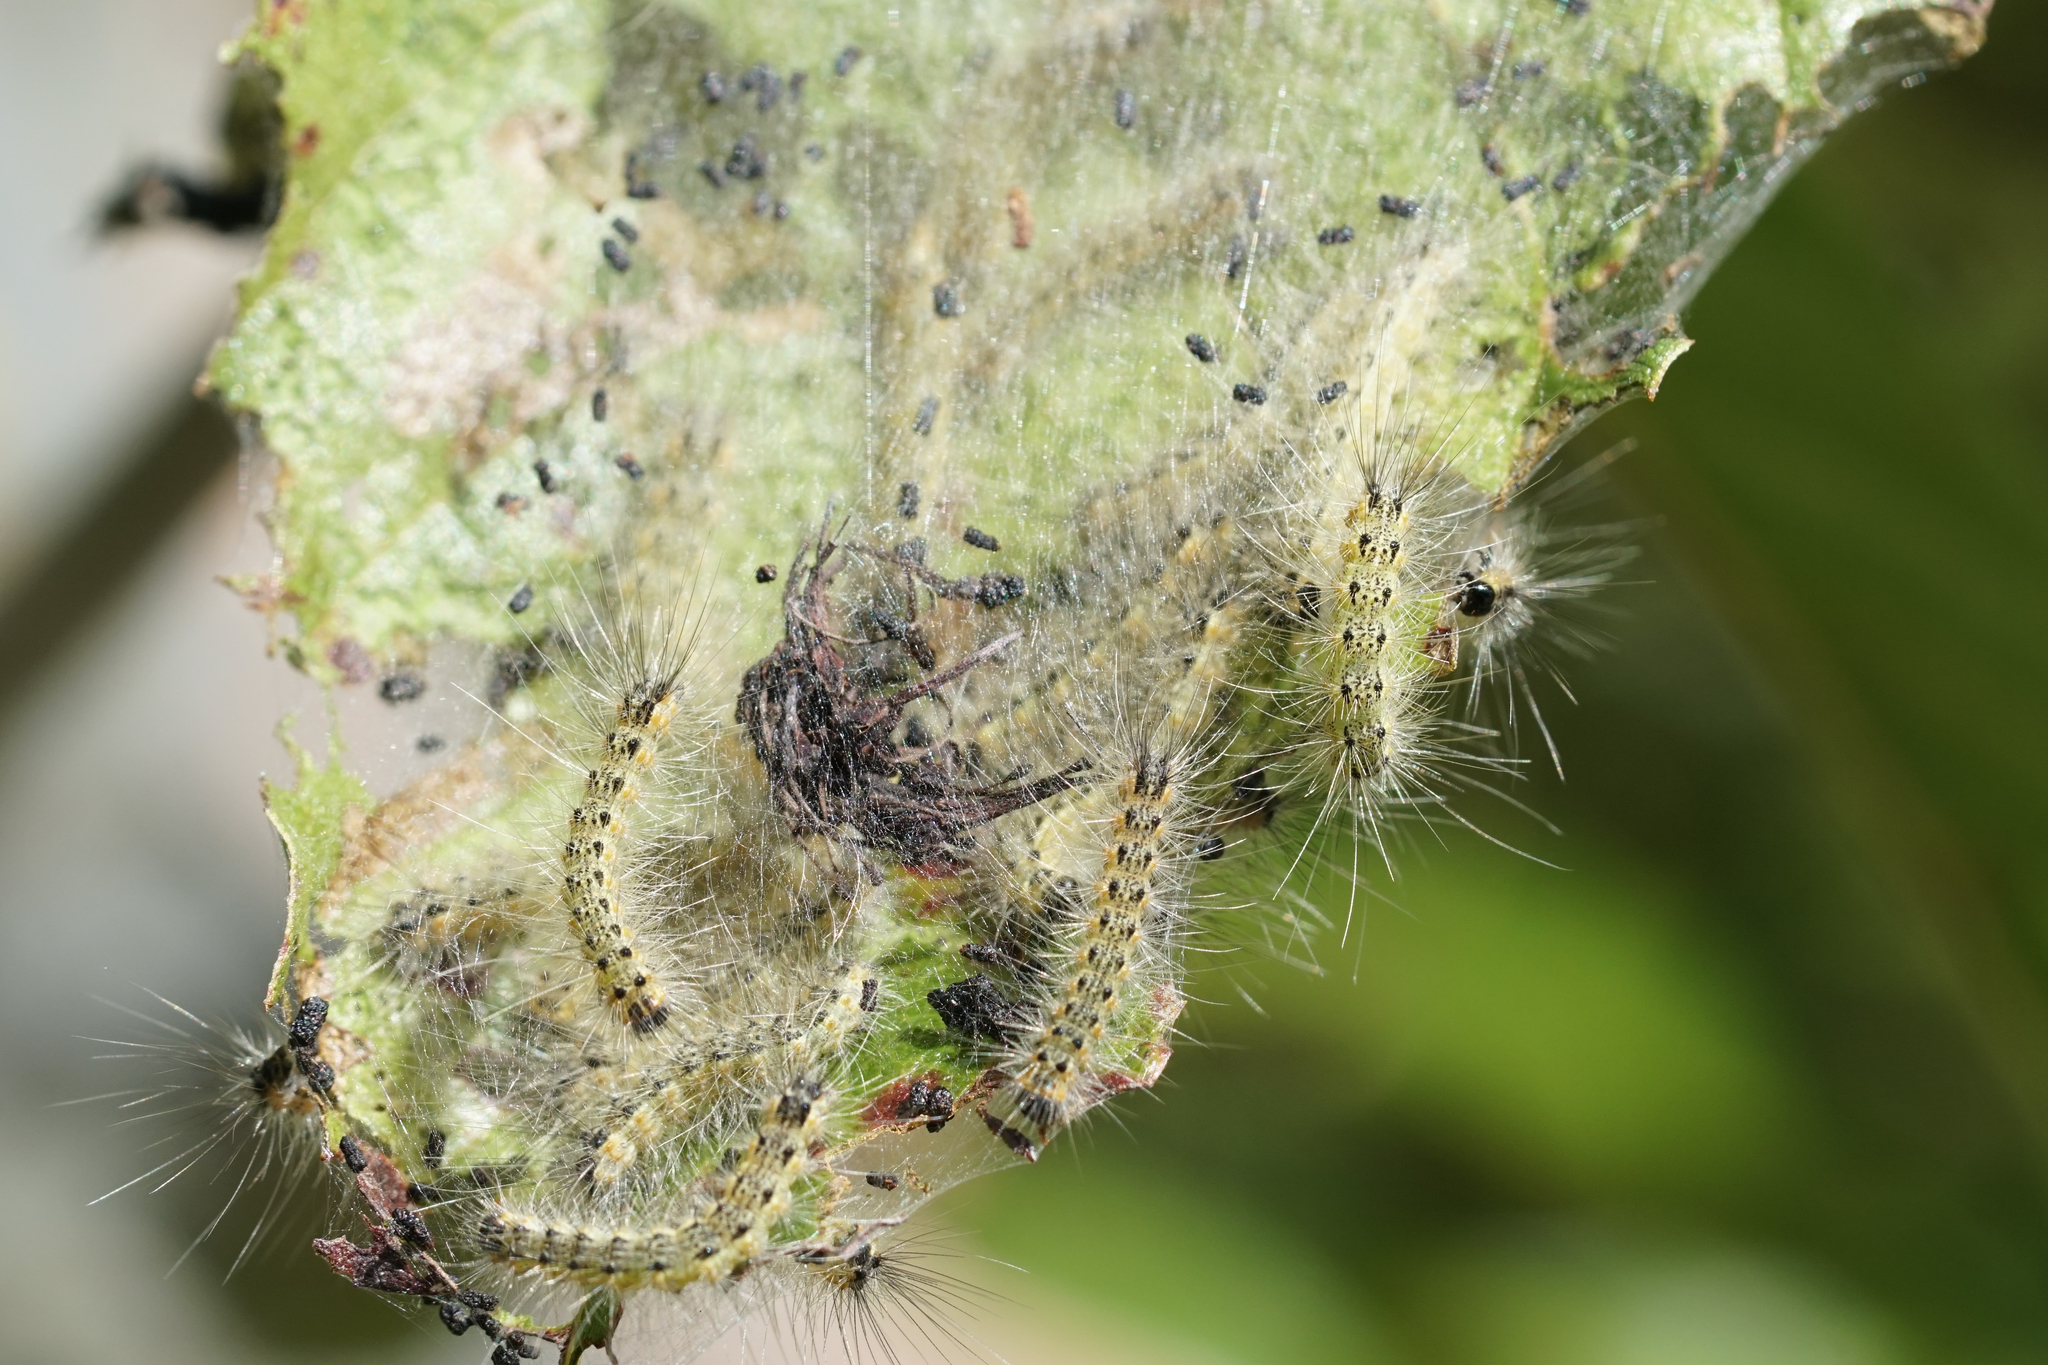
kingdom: Animalia
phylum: Arthropoda
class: Insecta
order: Lepidoptera
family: Erebidae
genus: Hyphantria
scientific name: Hyphantria cunea
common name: American white moth
